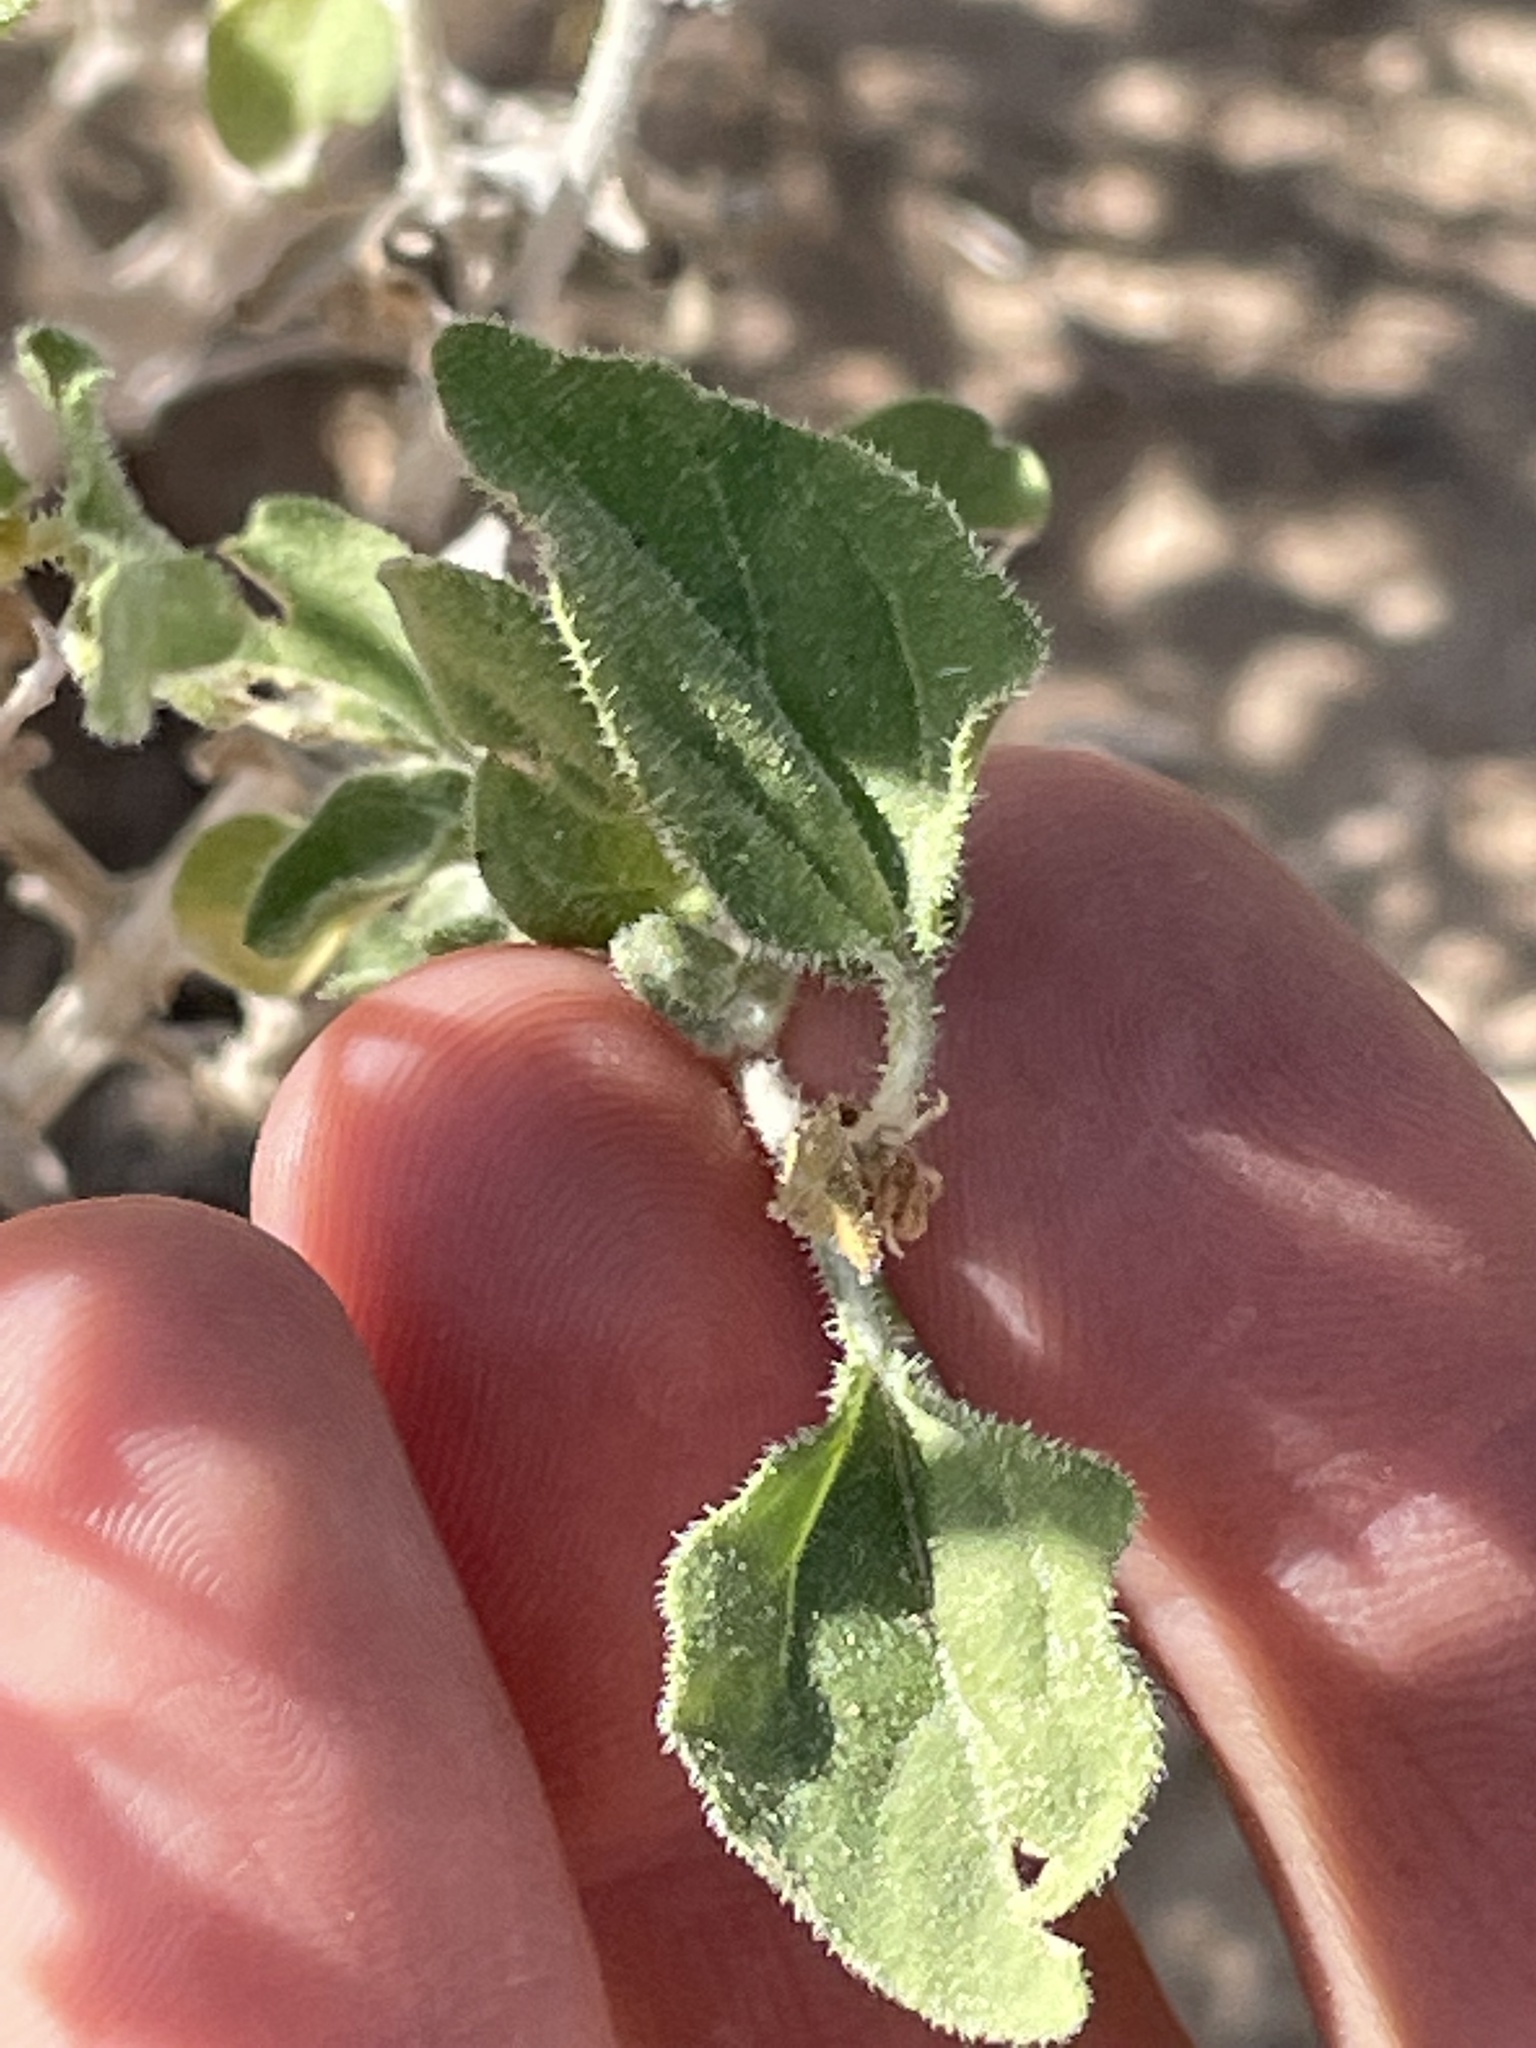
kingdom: Plantae
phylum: Tracheophyta
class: Magnoliopsida
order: Asterales
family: Asteraceae
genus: Encelia
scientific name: Encelia virginensis
